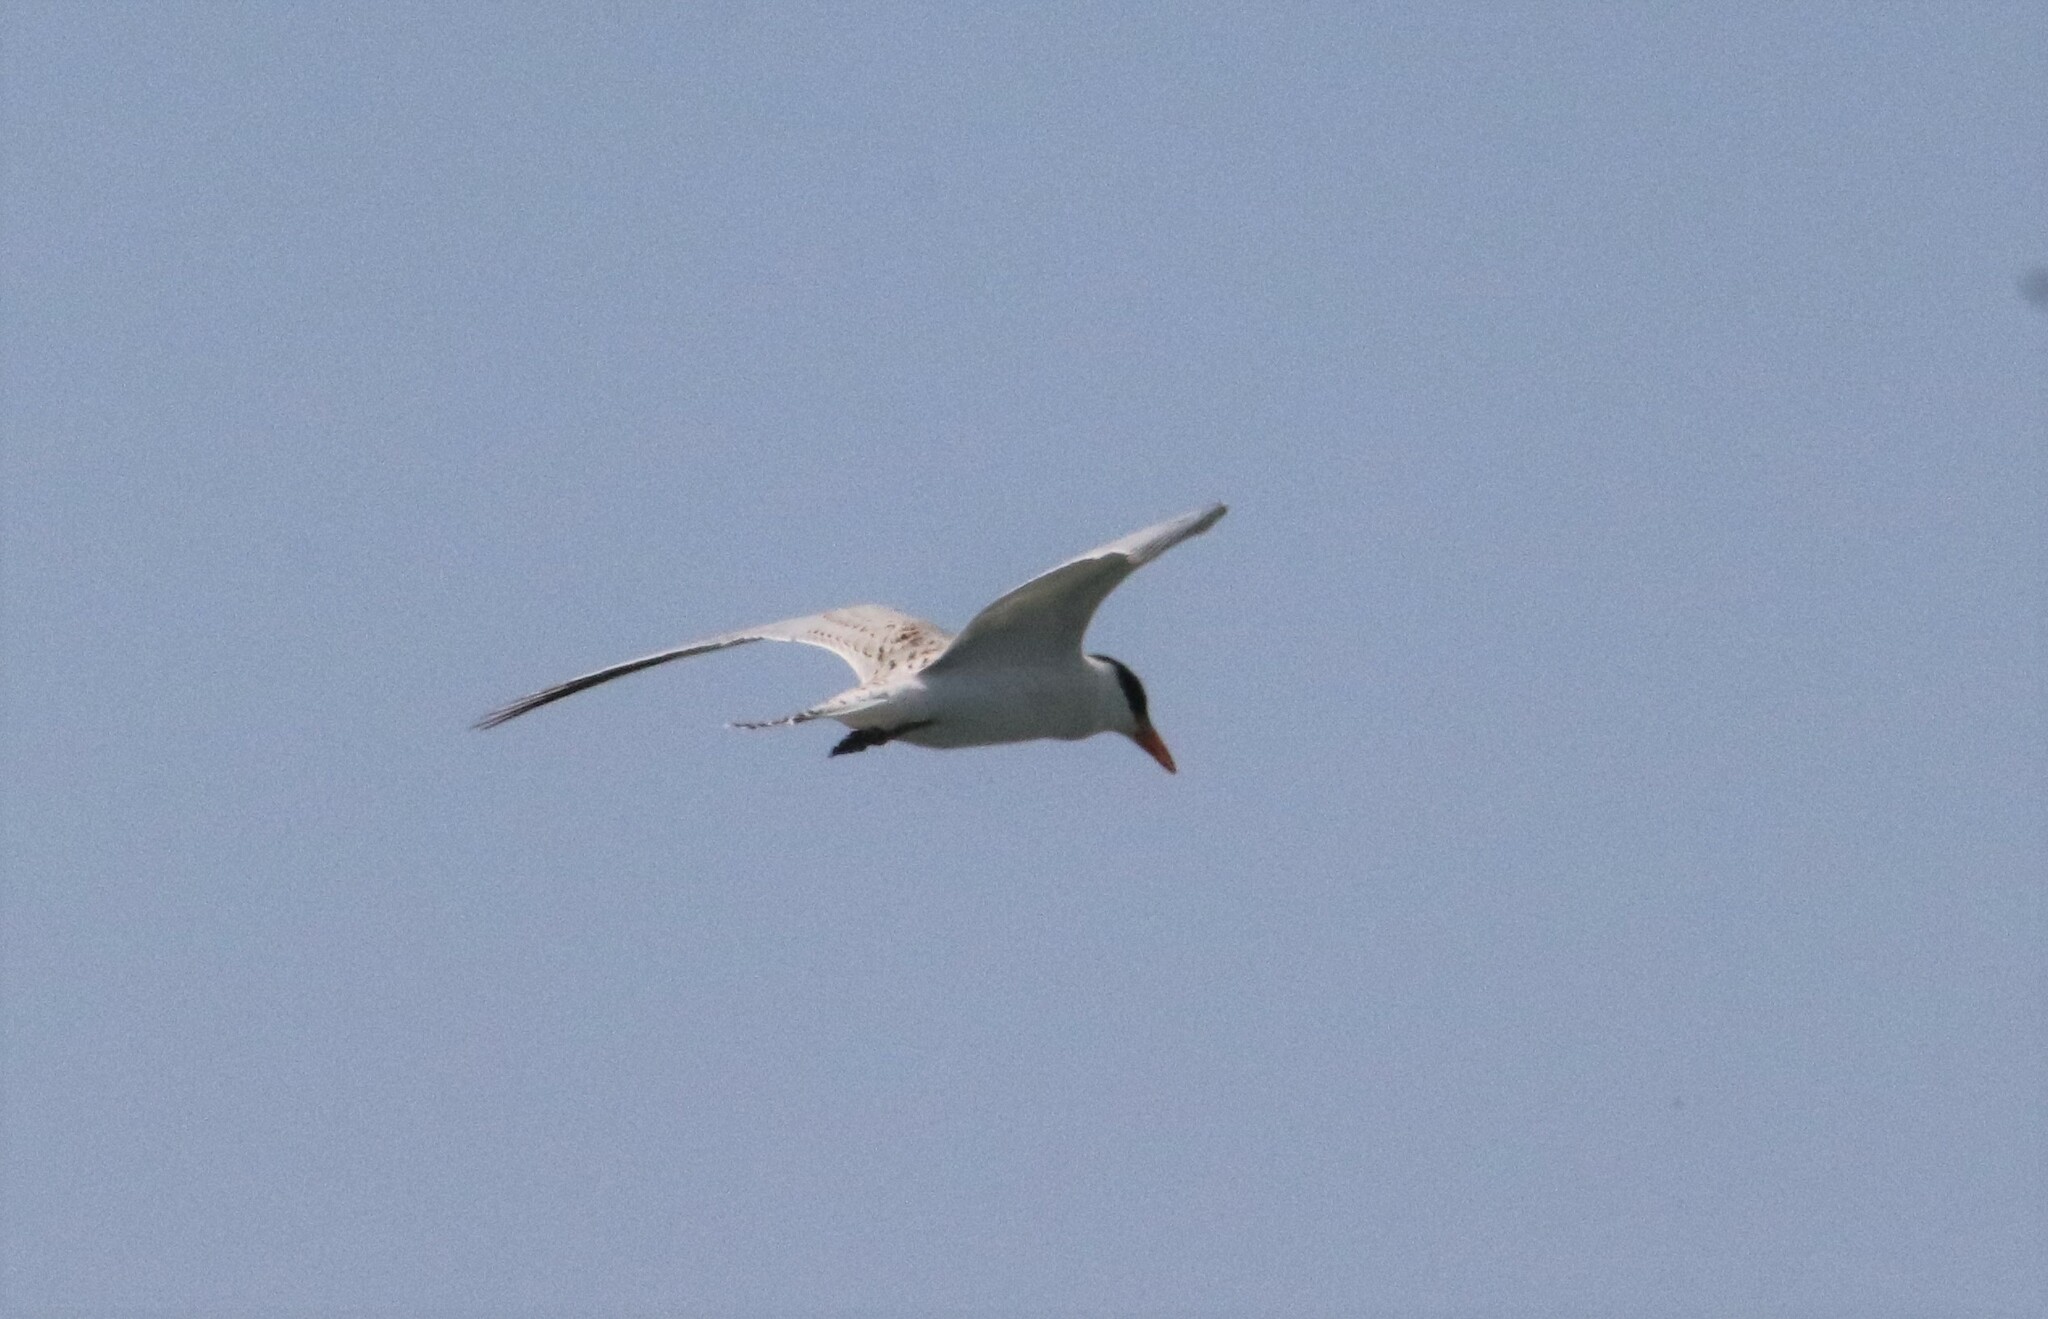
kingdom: Animalia
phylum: Chordata
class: Aves
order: Charadriiformes
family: Laridae
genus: Hydroprogne
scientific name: Hydroprogne caspia
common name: Caspian tern
